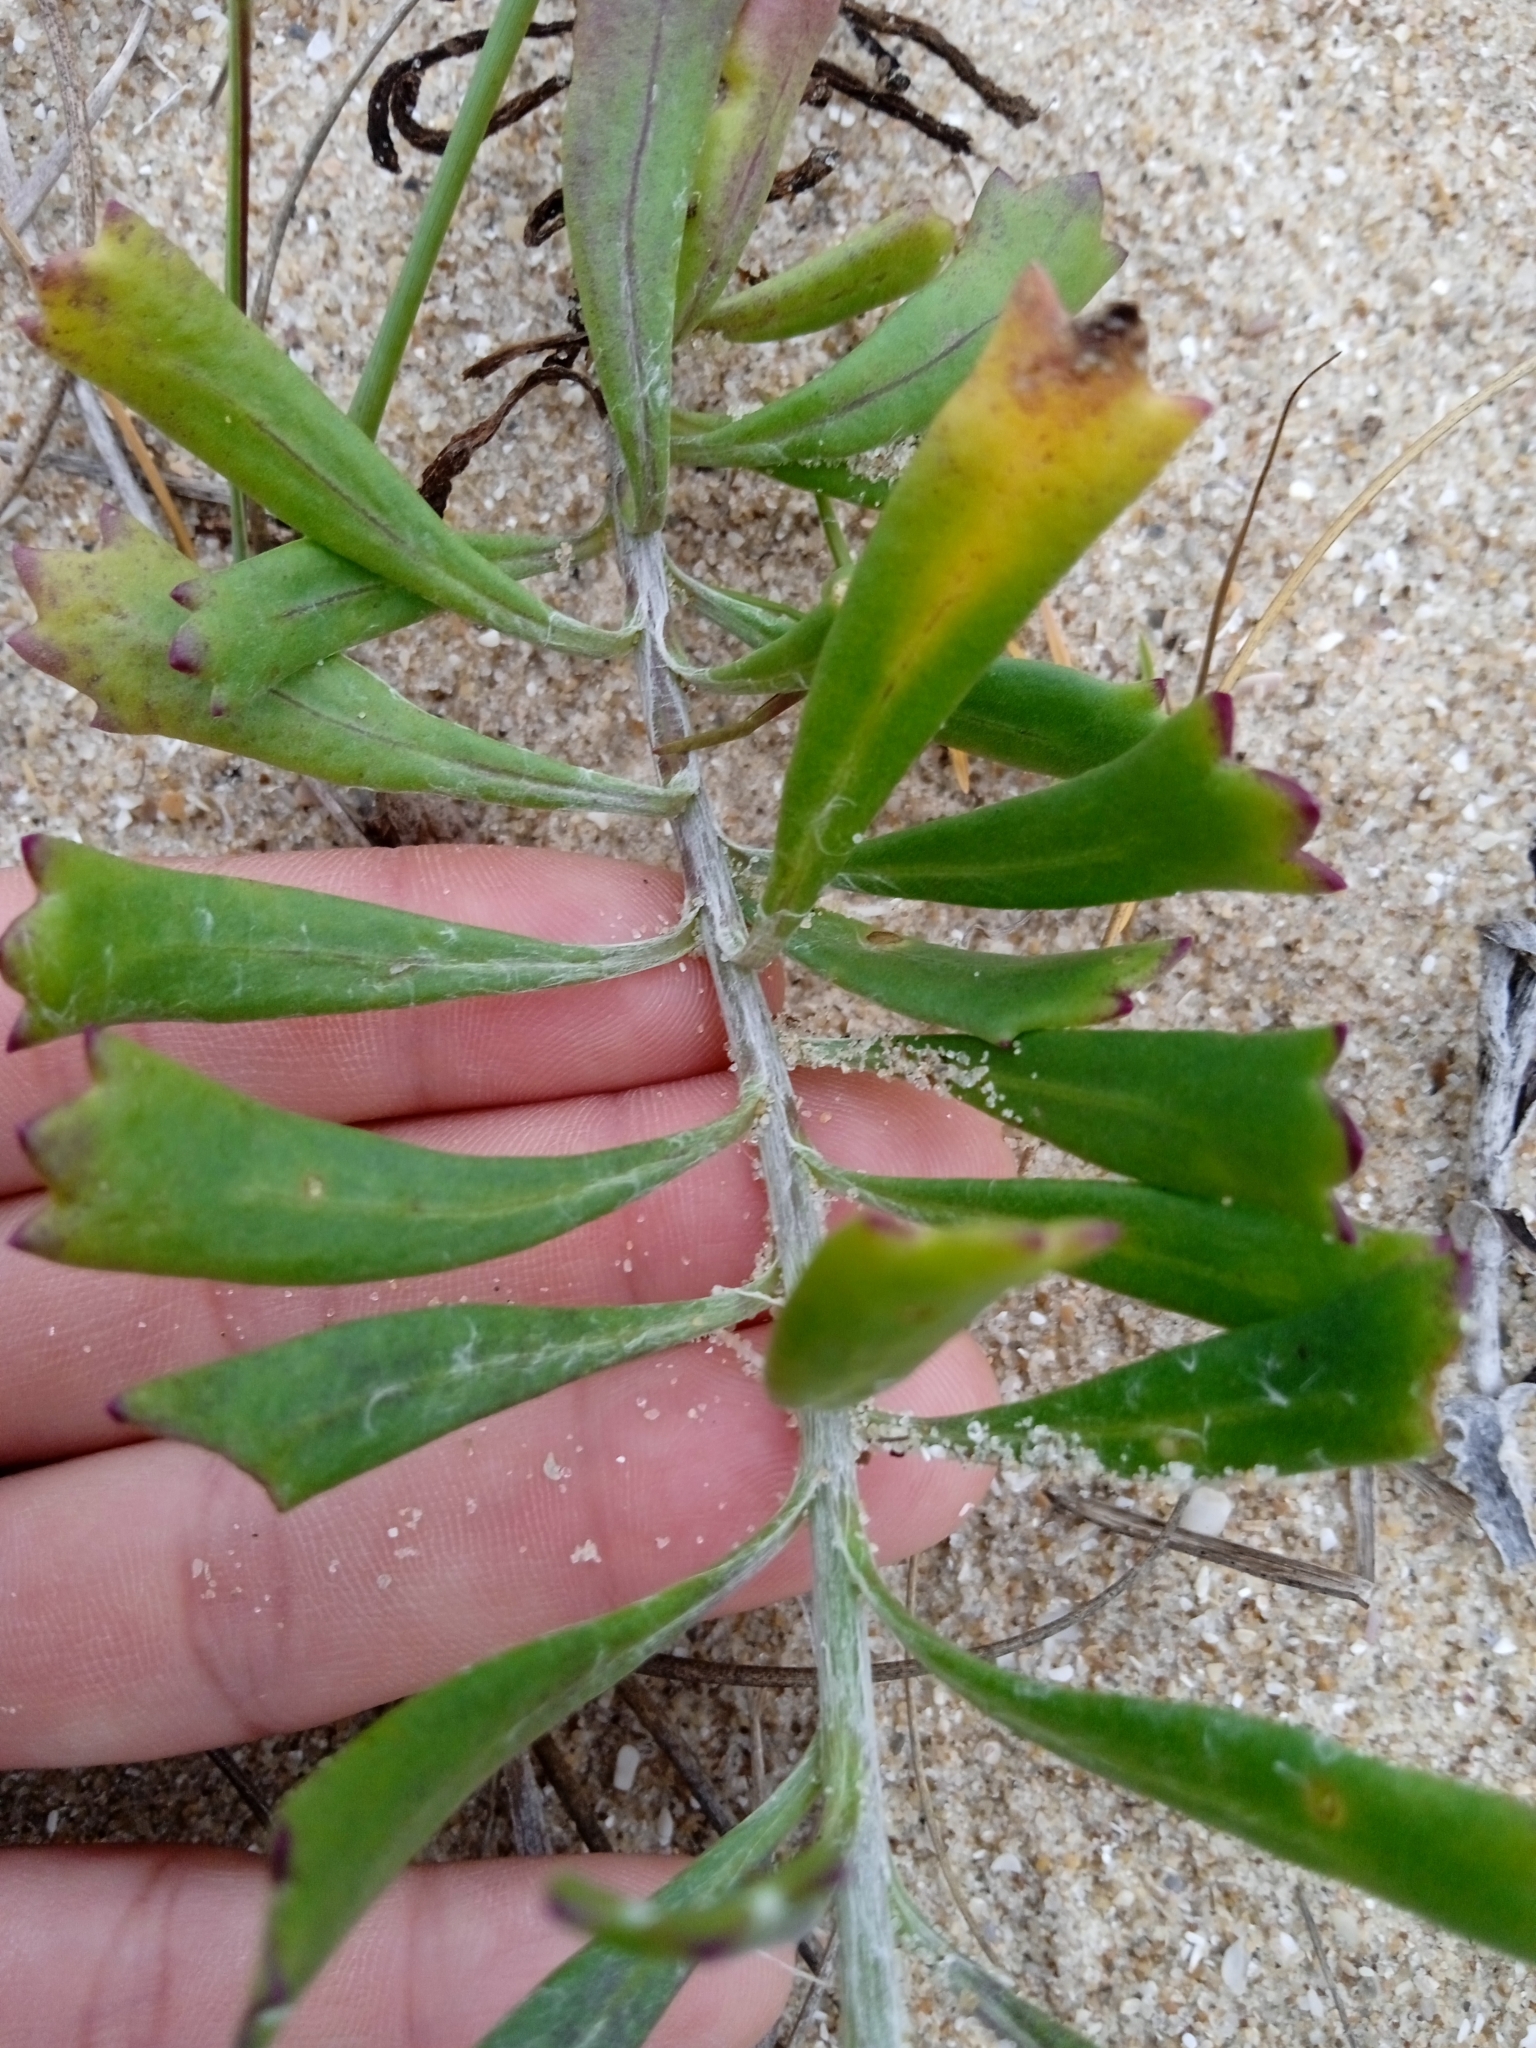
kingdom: Plantae
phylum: Tracheophyta
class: Magnoliopsida
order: Asterales
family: Asteraceae
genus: Senecio
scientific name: Senecio crassiflorus
